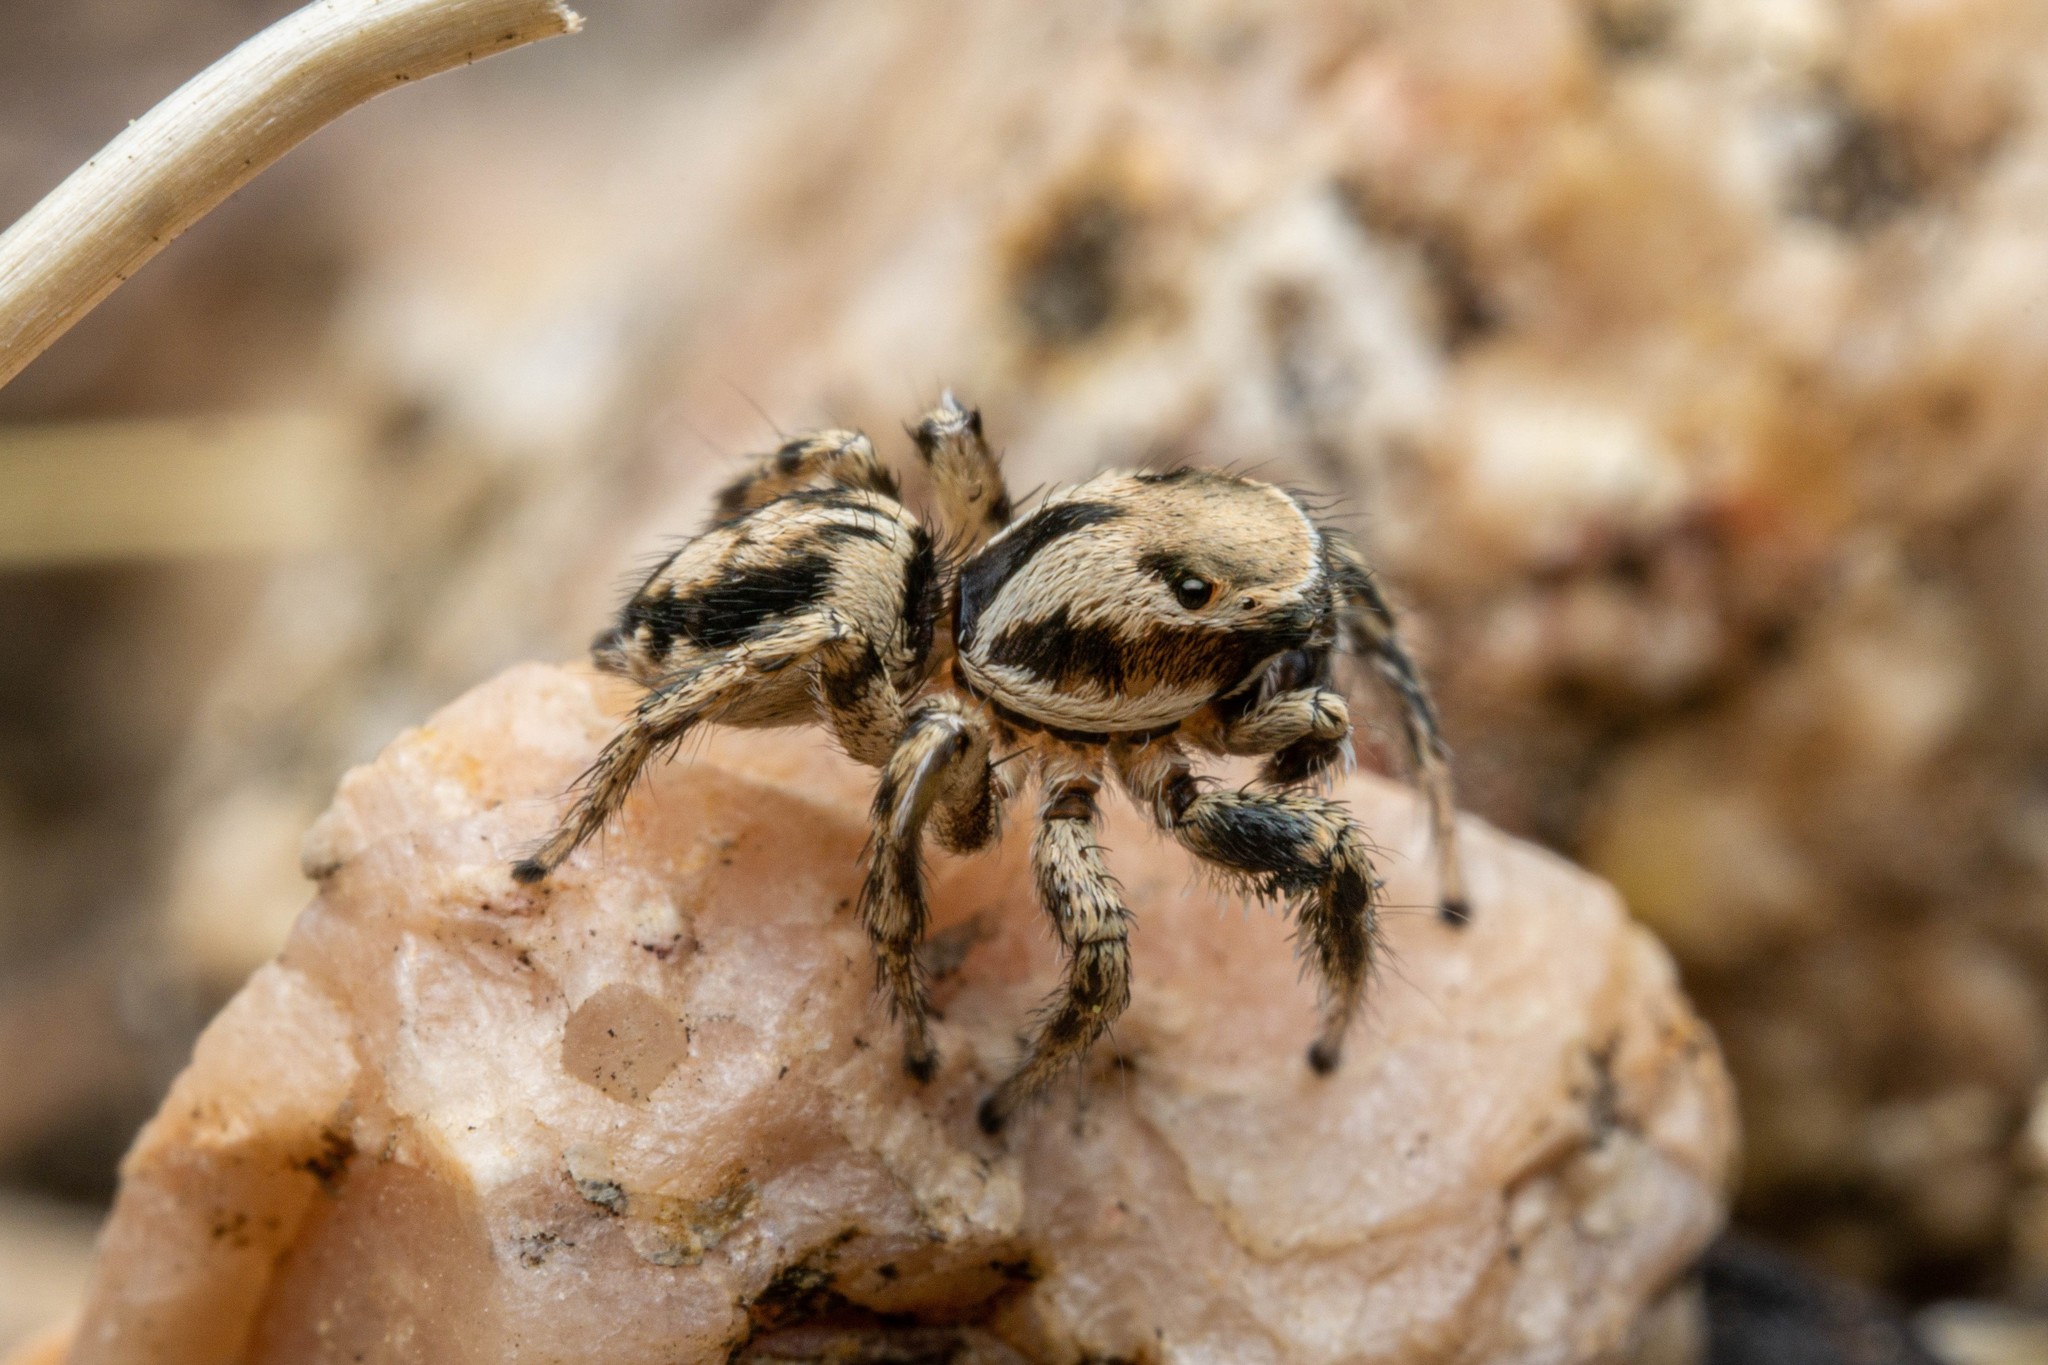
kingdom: Animalia
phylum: Arthropoda
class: Arachnida
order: Araneae
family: Salticidae
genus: Habronattus
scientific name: Habronattus clypeatus
